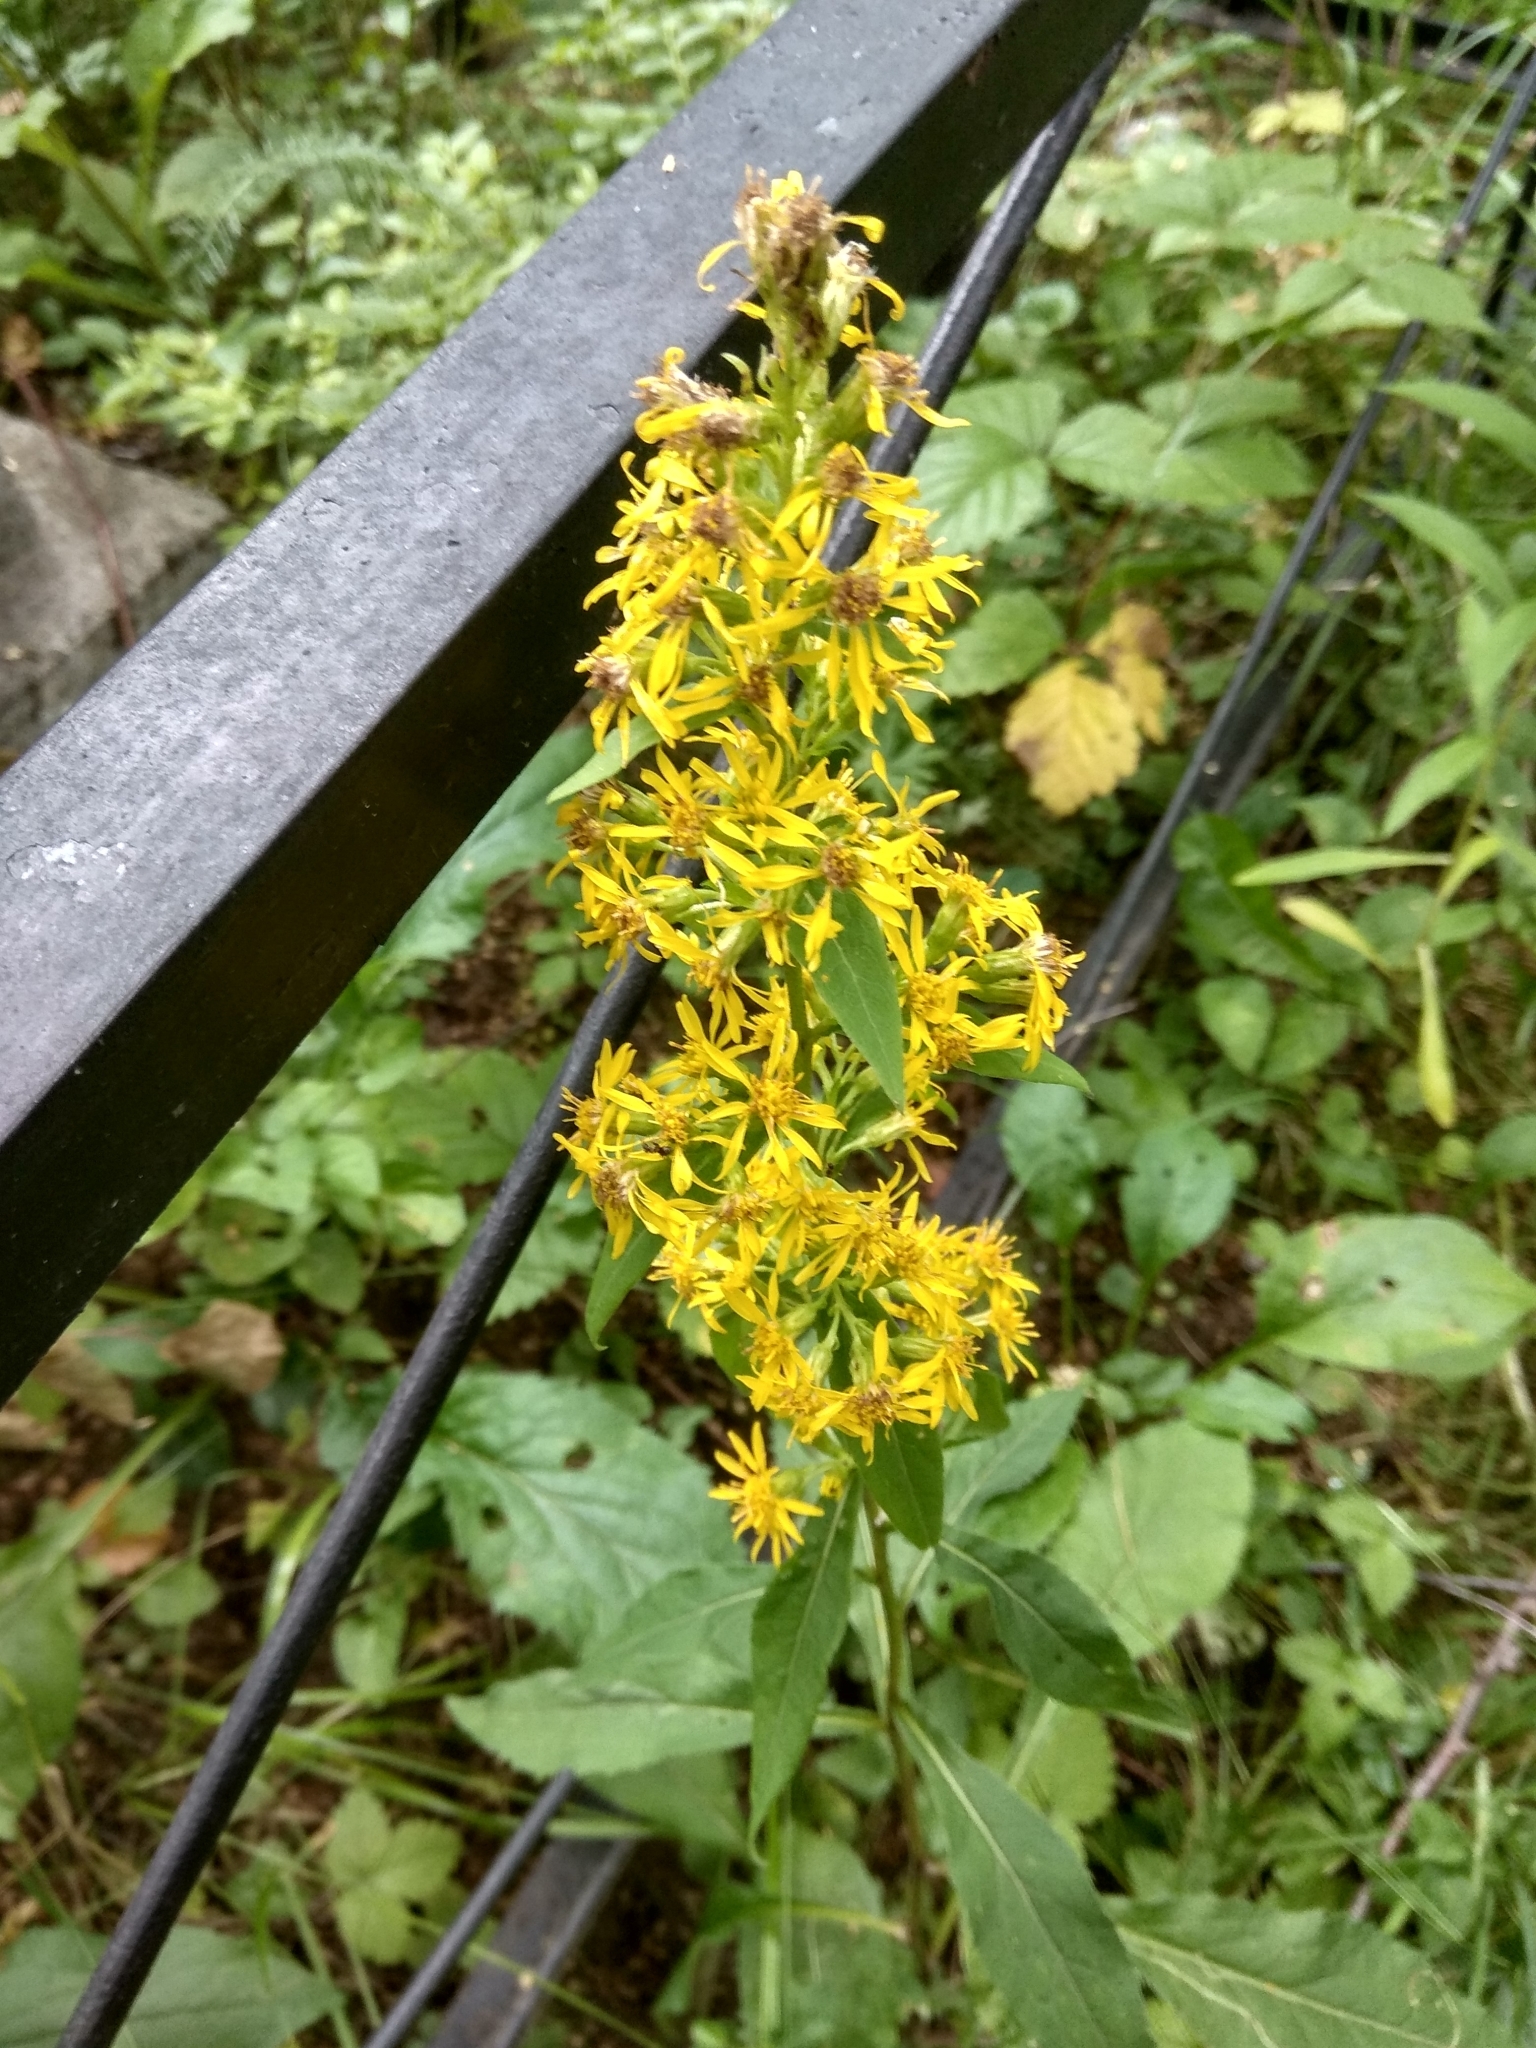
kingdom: Plantae
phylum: Tracheophyta
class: Magnoliopsida
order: Asterales
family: Asteraceae
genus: Solidago
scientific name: Solidago virgaurea
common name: Goldenrod
